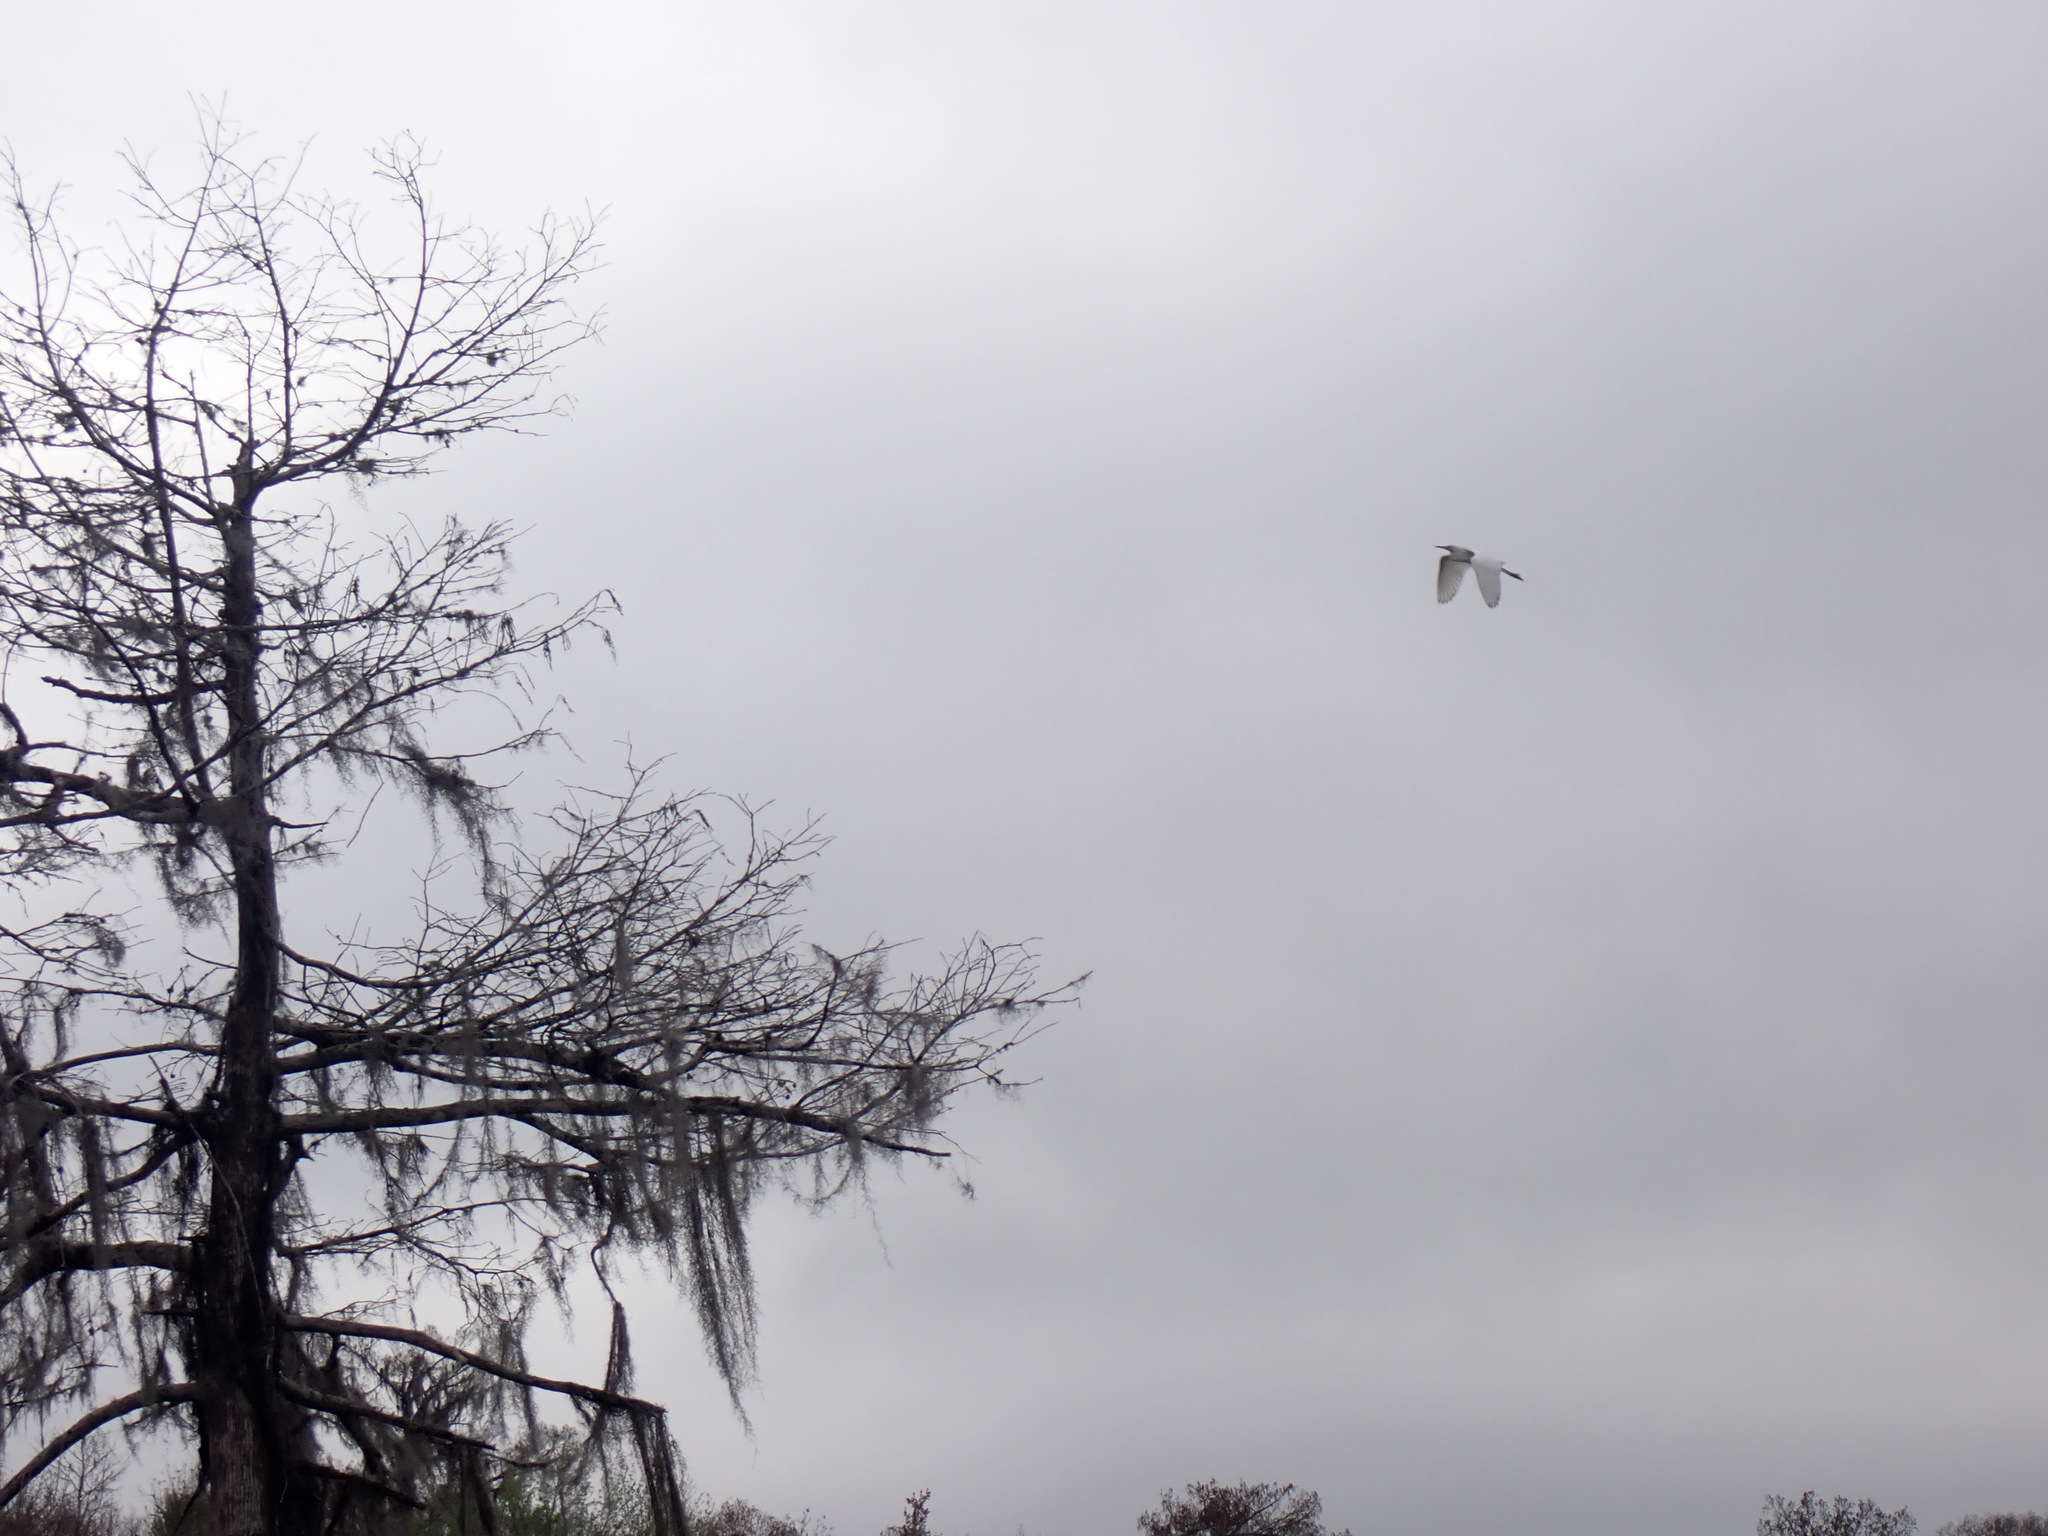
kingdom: Animalia
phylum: Chordata
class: Aves
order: Pelecaniformes
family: Ardeidae
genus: Ardea
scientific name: Ardea alba
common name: Great egret
